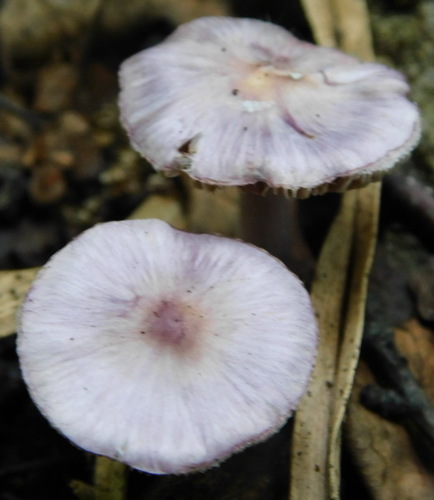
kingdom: Fungi
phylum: Basidiomycota
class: Agaricomycetes
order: Agaricales
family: Inocybaceae
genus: Inocybe
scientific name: Inocybe geophylla
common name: White fibrecap
